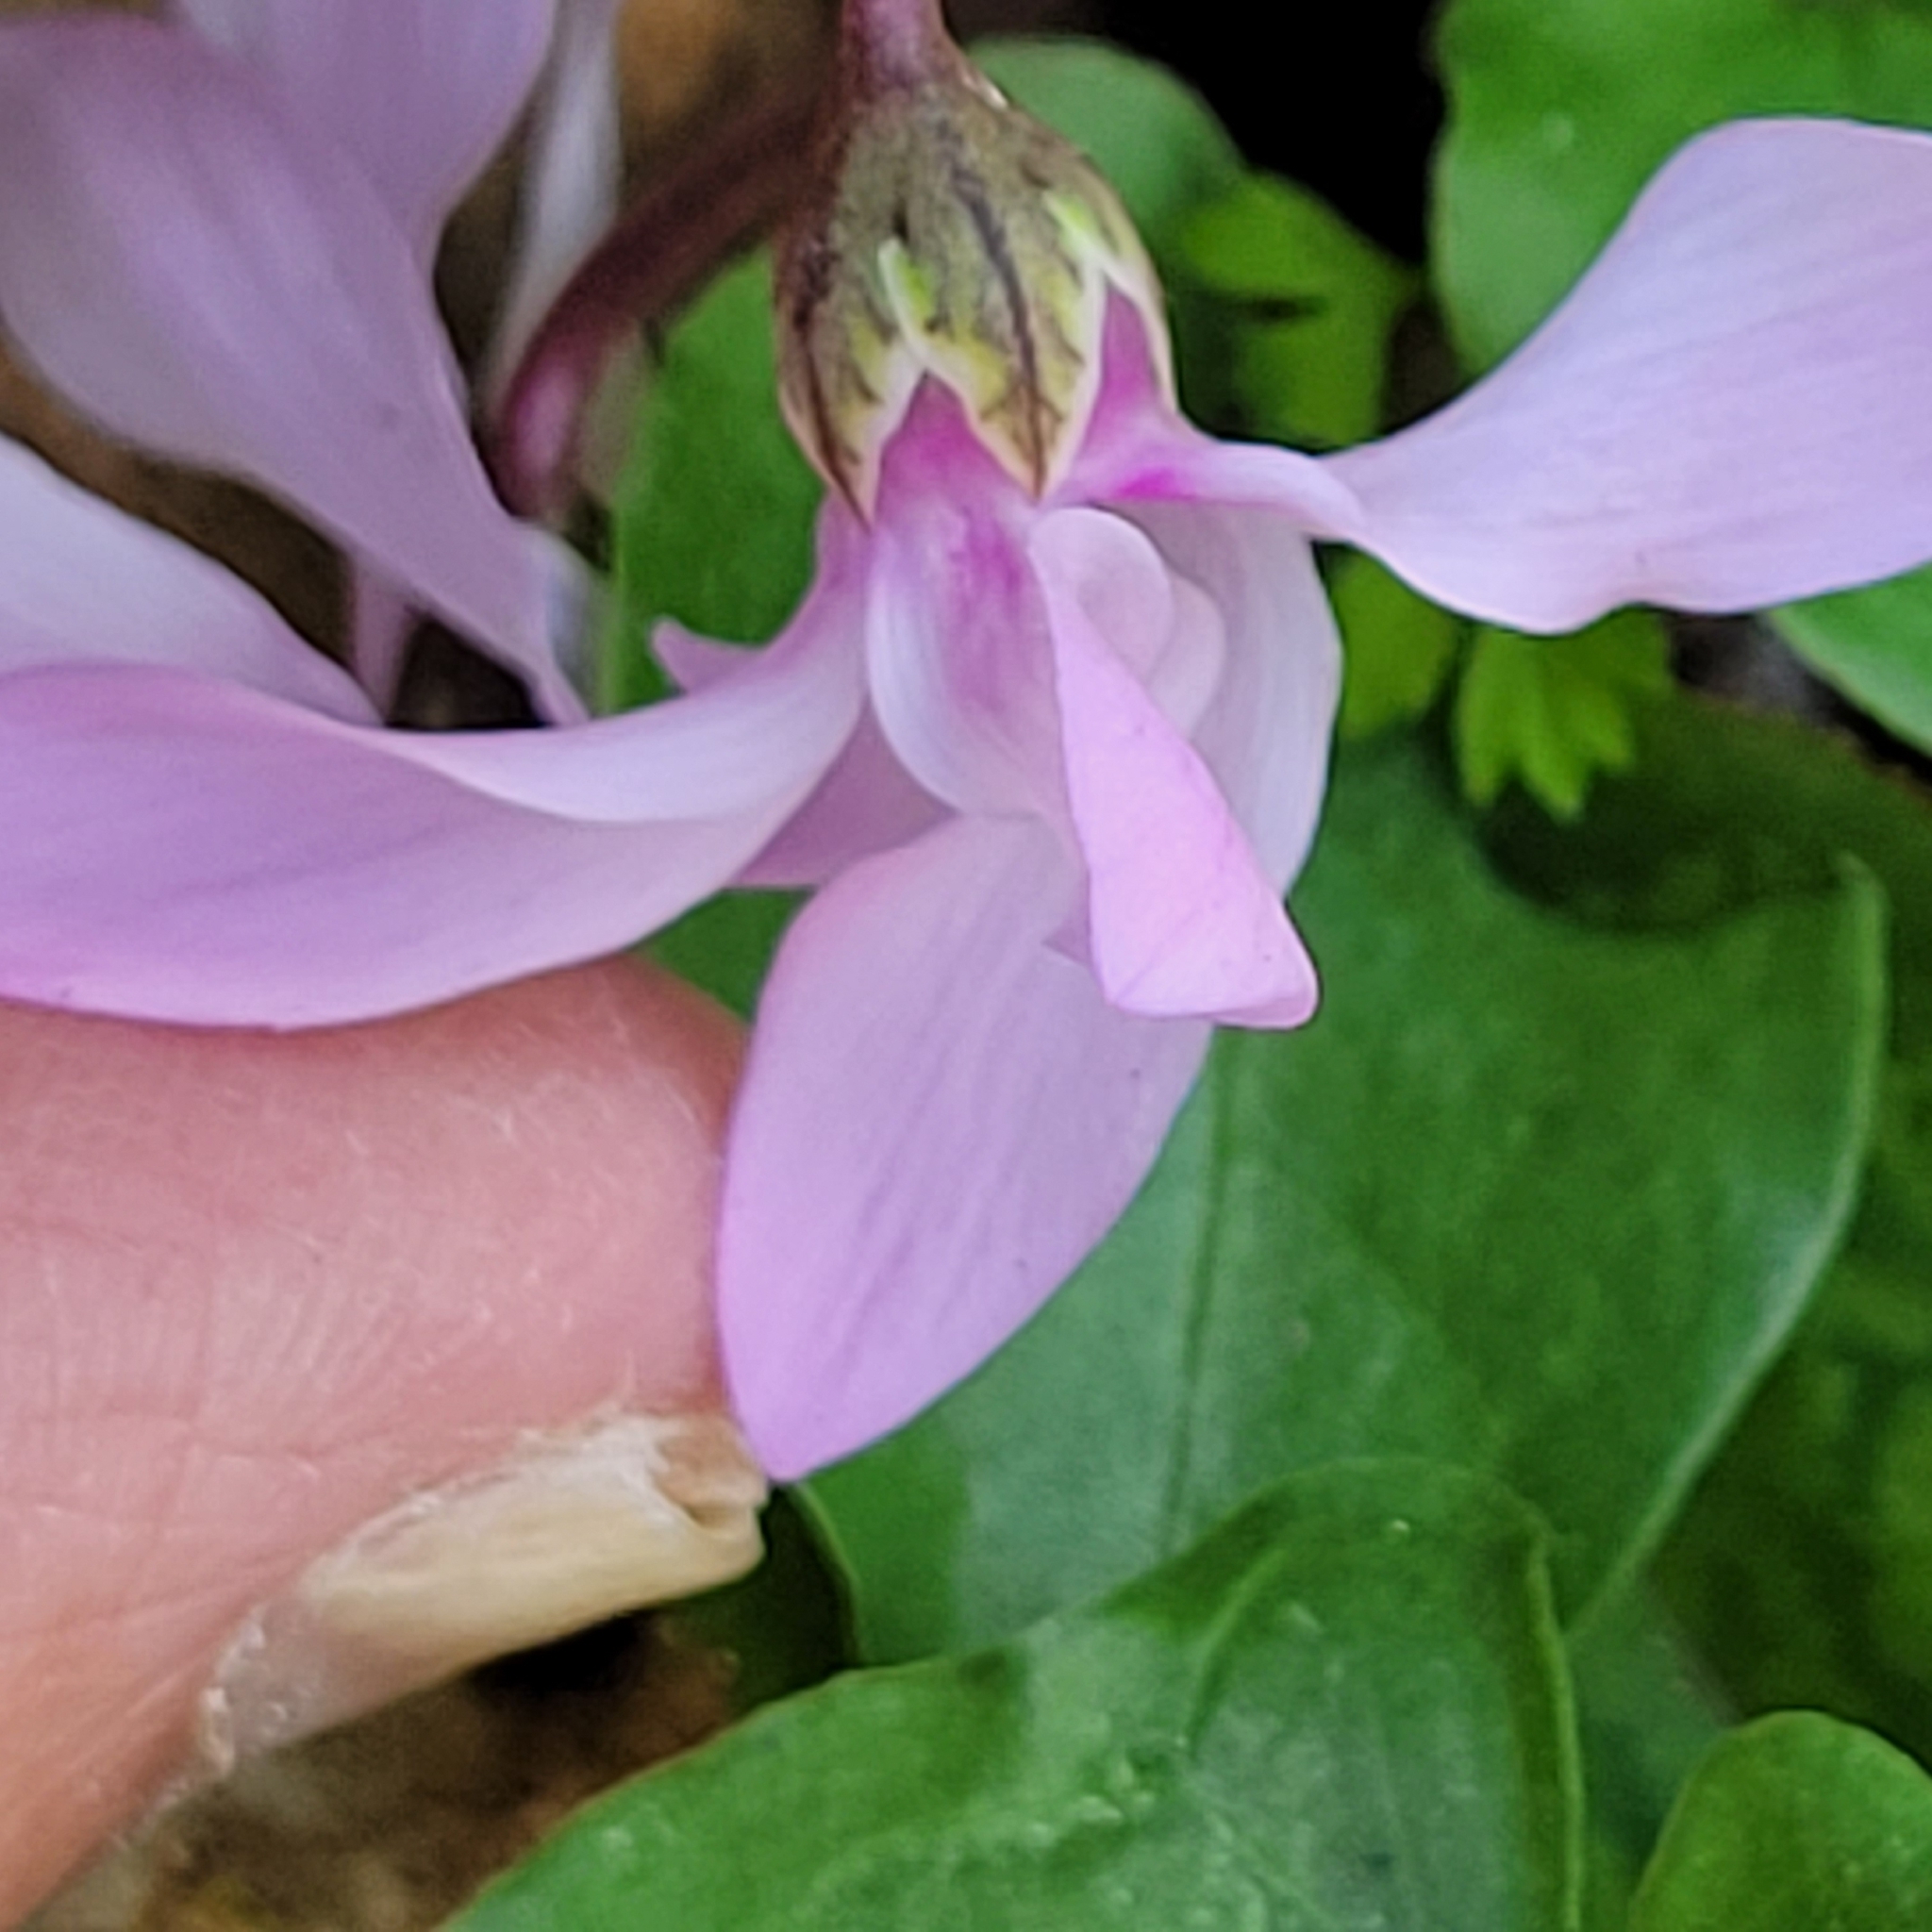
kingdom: Plantae
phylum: Tracheophyta
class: Magnoliopsida
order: Ericales
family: Primulaceae
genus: Cyclamen
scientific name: Cyclamen persicum
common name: Florist's cyclamen
